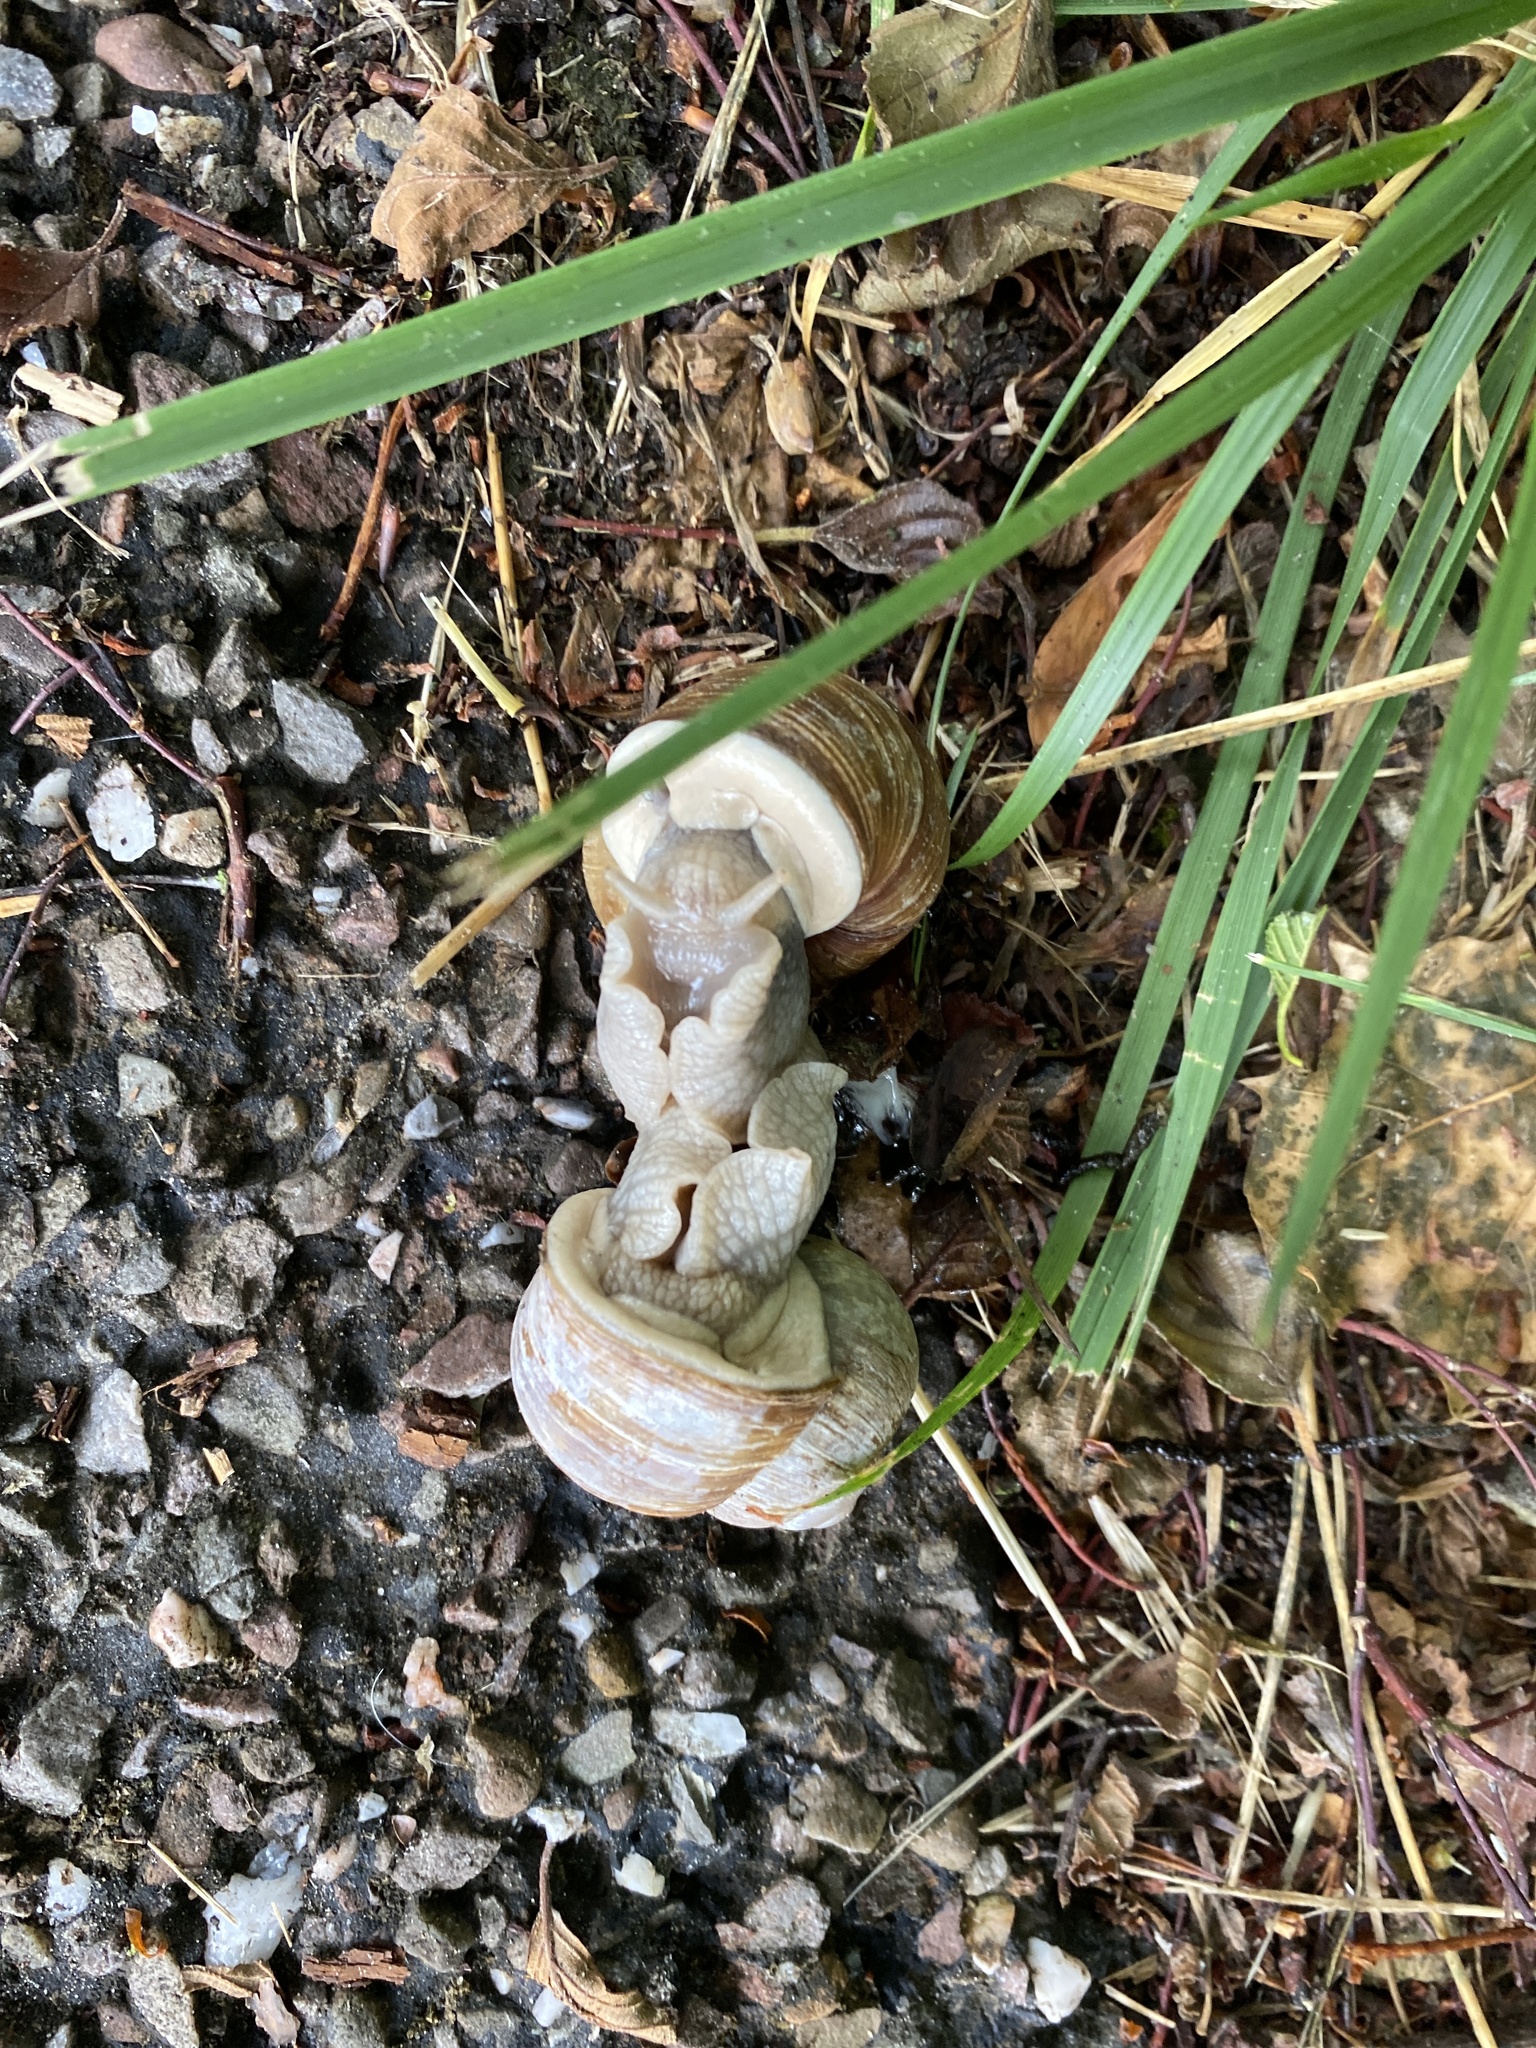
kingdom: Animalia
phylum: Mollusca
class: Gastropoda
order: Stylommatophora
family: Helicidae
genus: Helix
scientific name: Helix pomatia
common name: Roman snail
